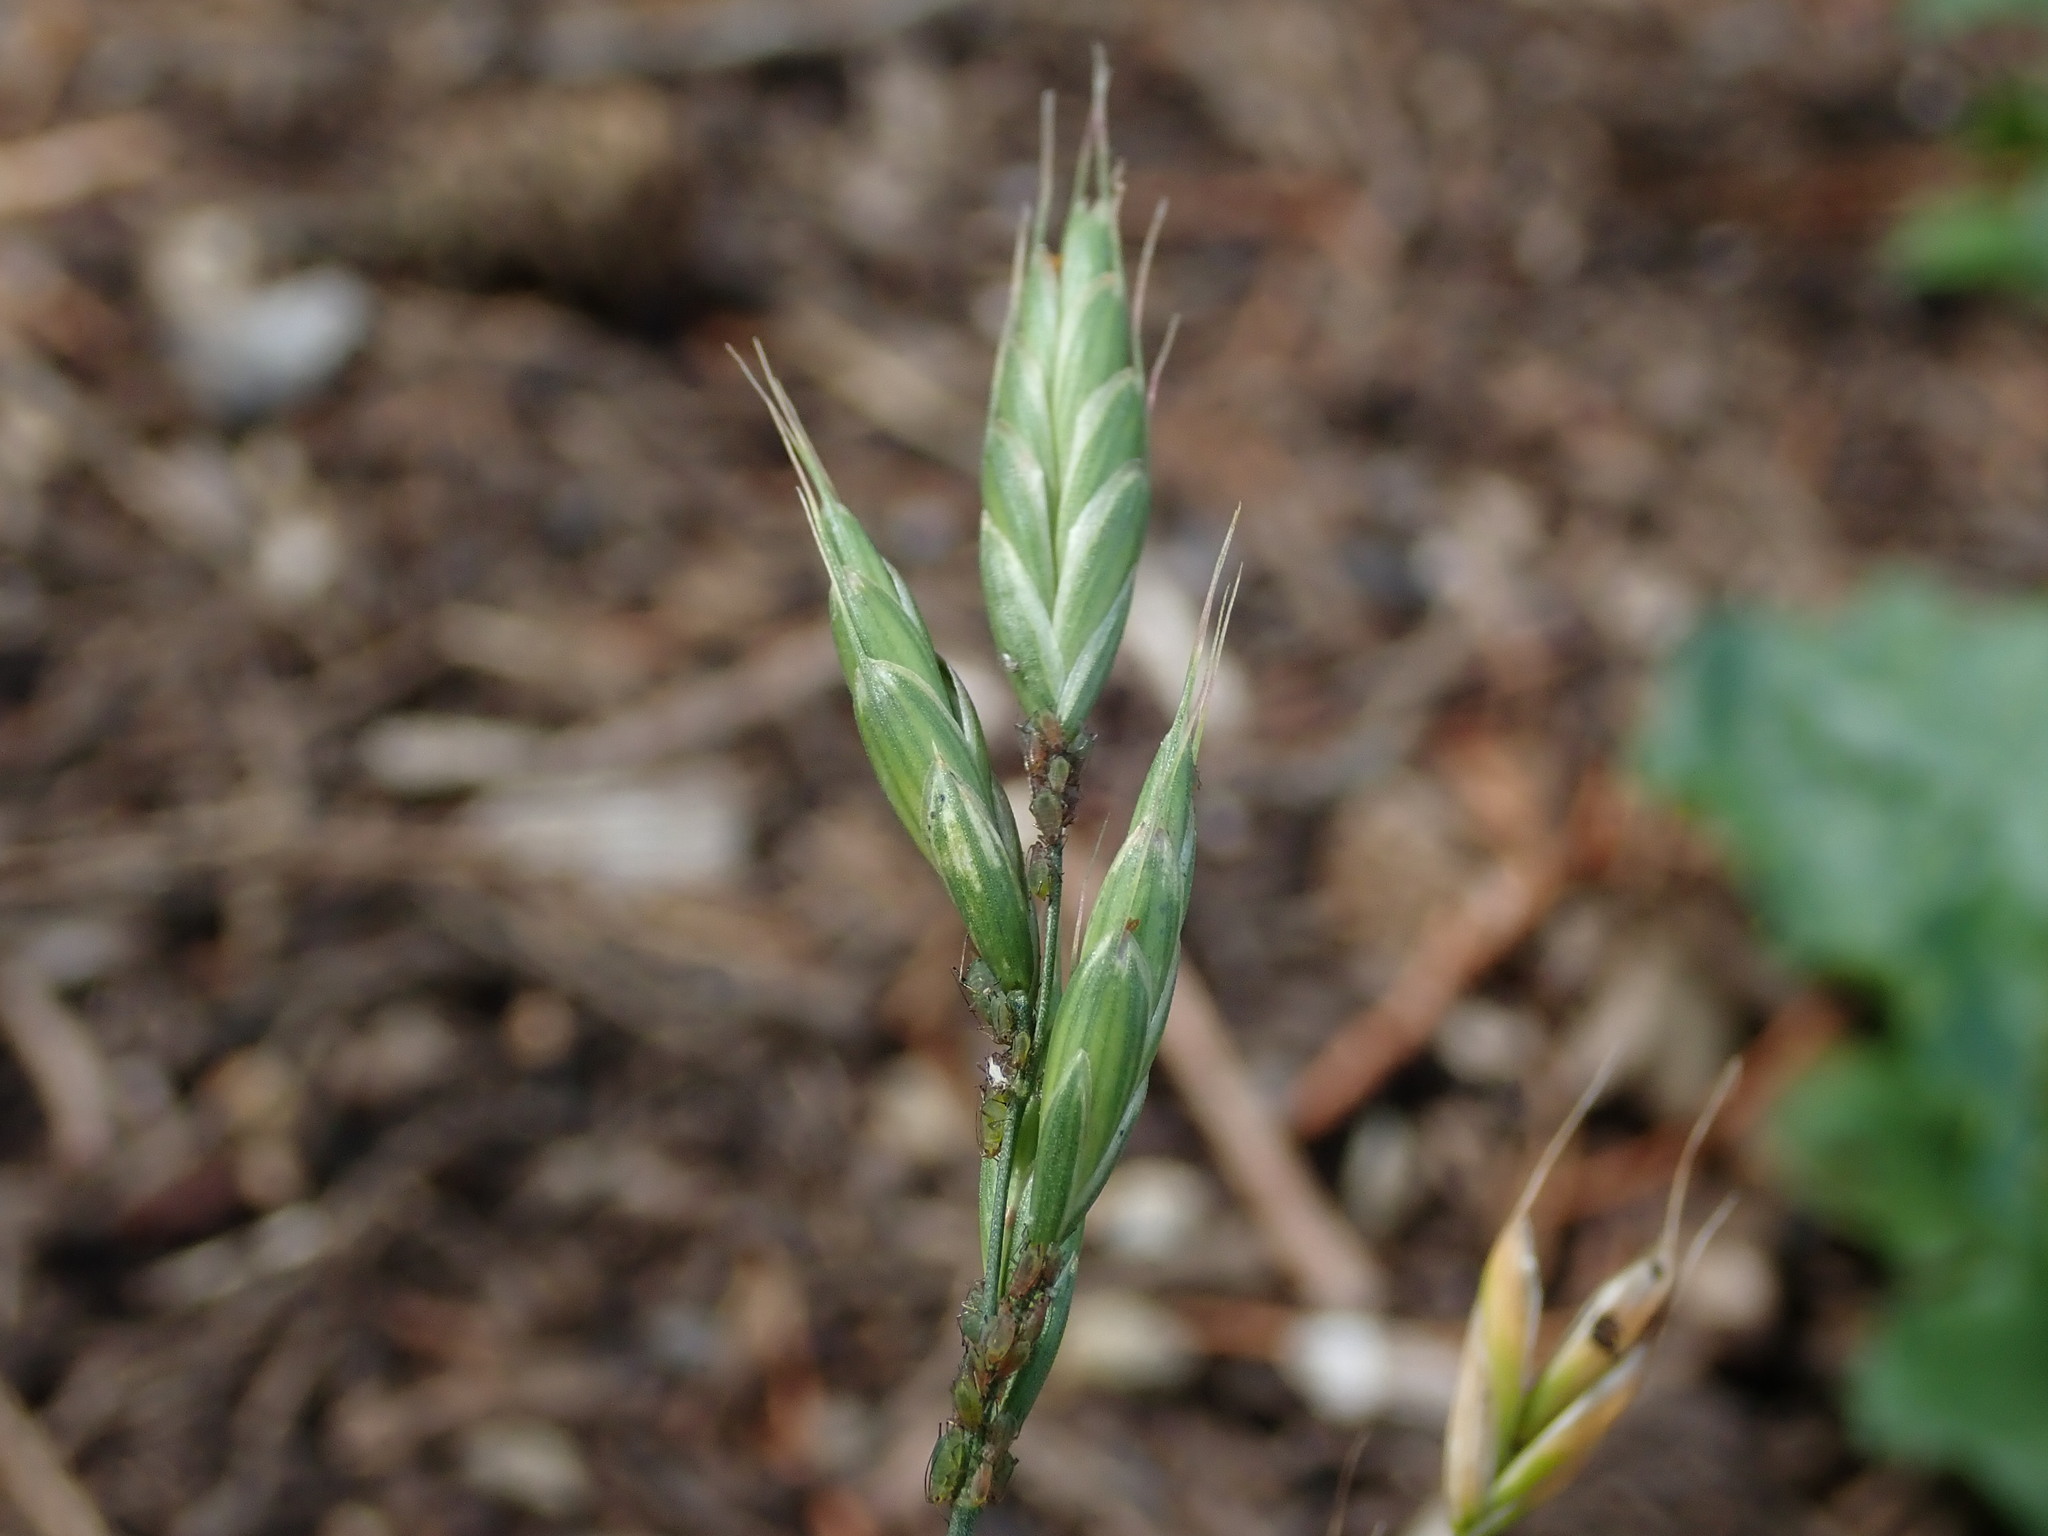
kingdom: Plantae
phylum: Tracheophyta
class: Liliopsida
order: Poales
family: Poaceae
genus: Bromus
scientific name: Bromus hordeaceus
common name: Soft brome
